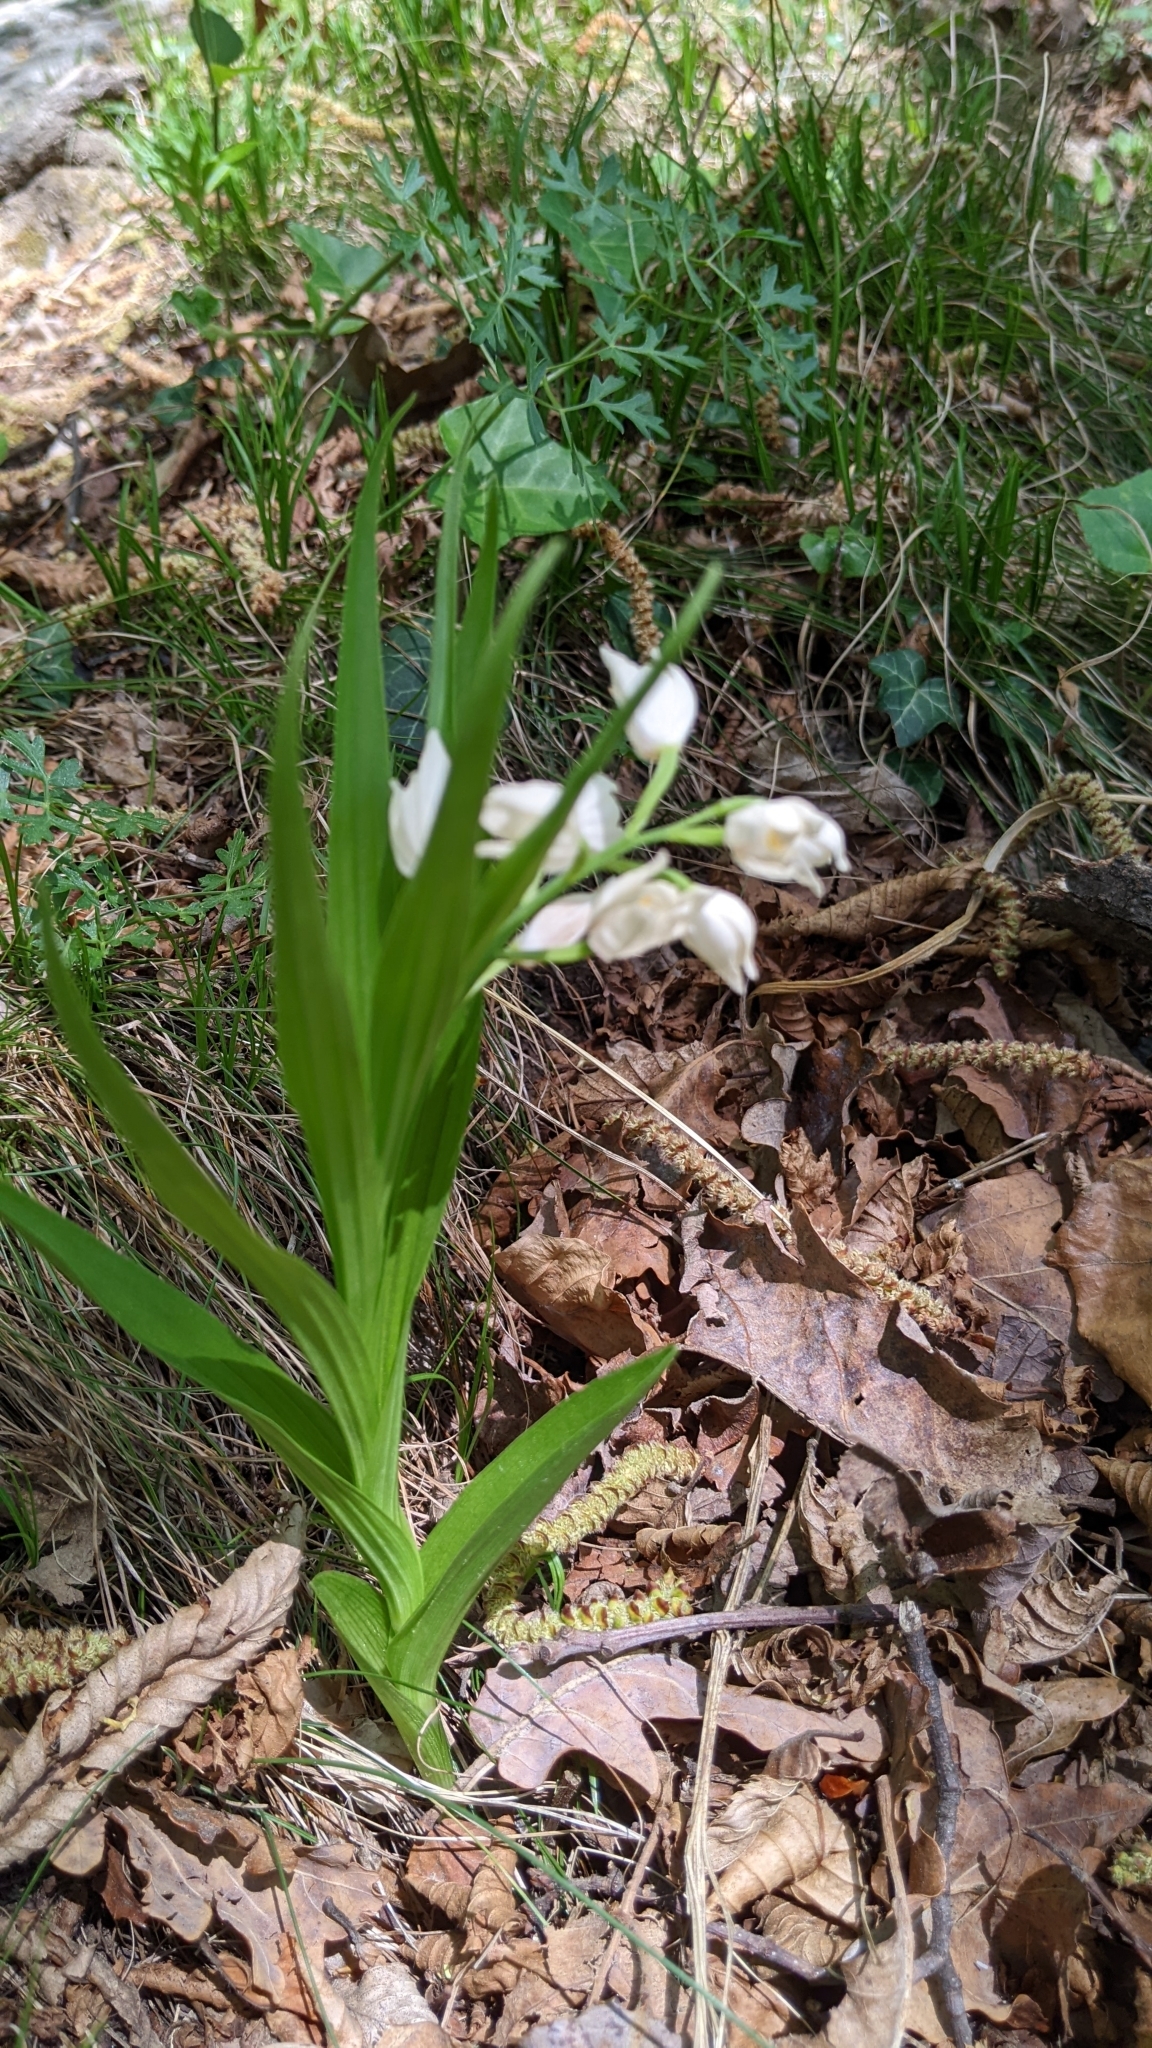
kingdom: Plantae
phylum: Tracheophyta
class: Liliopsida
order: Asparagales
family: Orchidaceae
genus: Cephalanthera
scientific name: Cephalanthera longifolia
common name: Narrow-leaved helleborine
